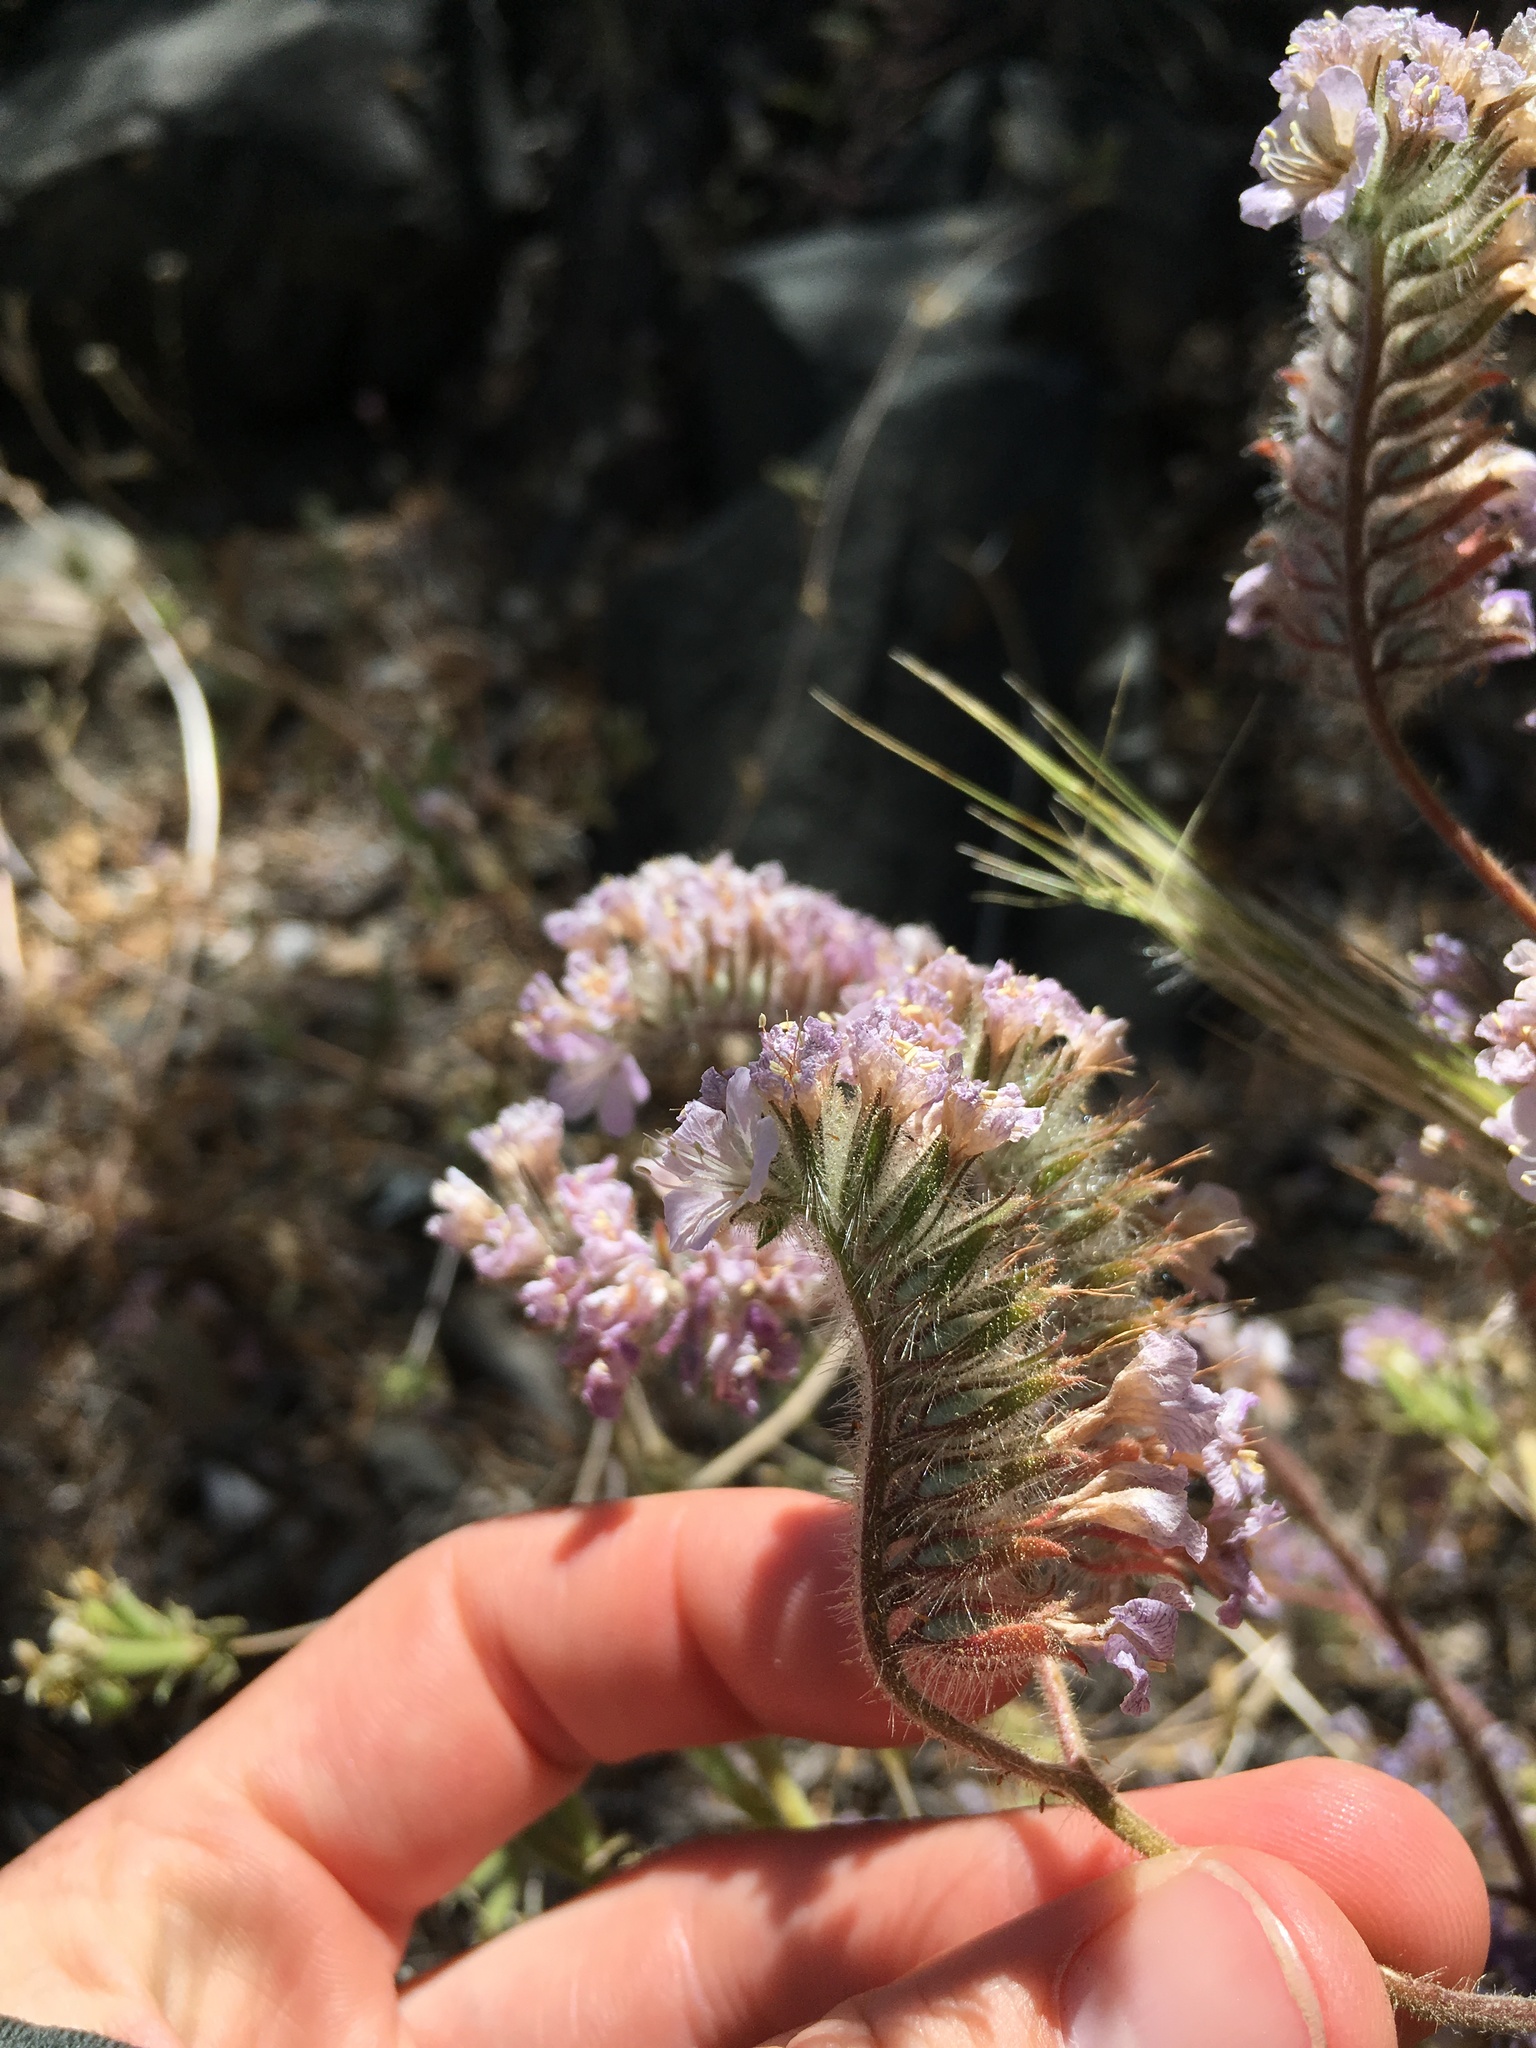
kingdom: Plantae
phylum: Tracheophyta
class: Magnoliopsida
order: Boraginales
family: Hydrophyllaceae
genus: Phacelia
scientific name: Phacelia vallis-mortae
